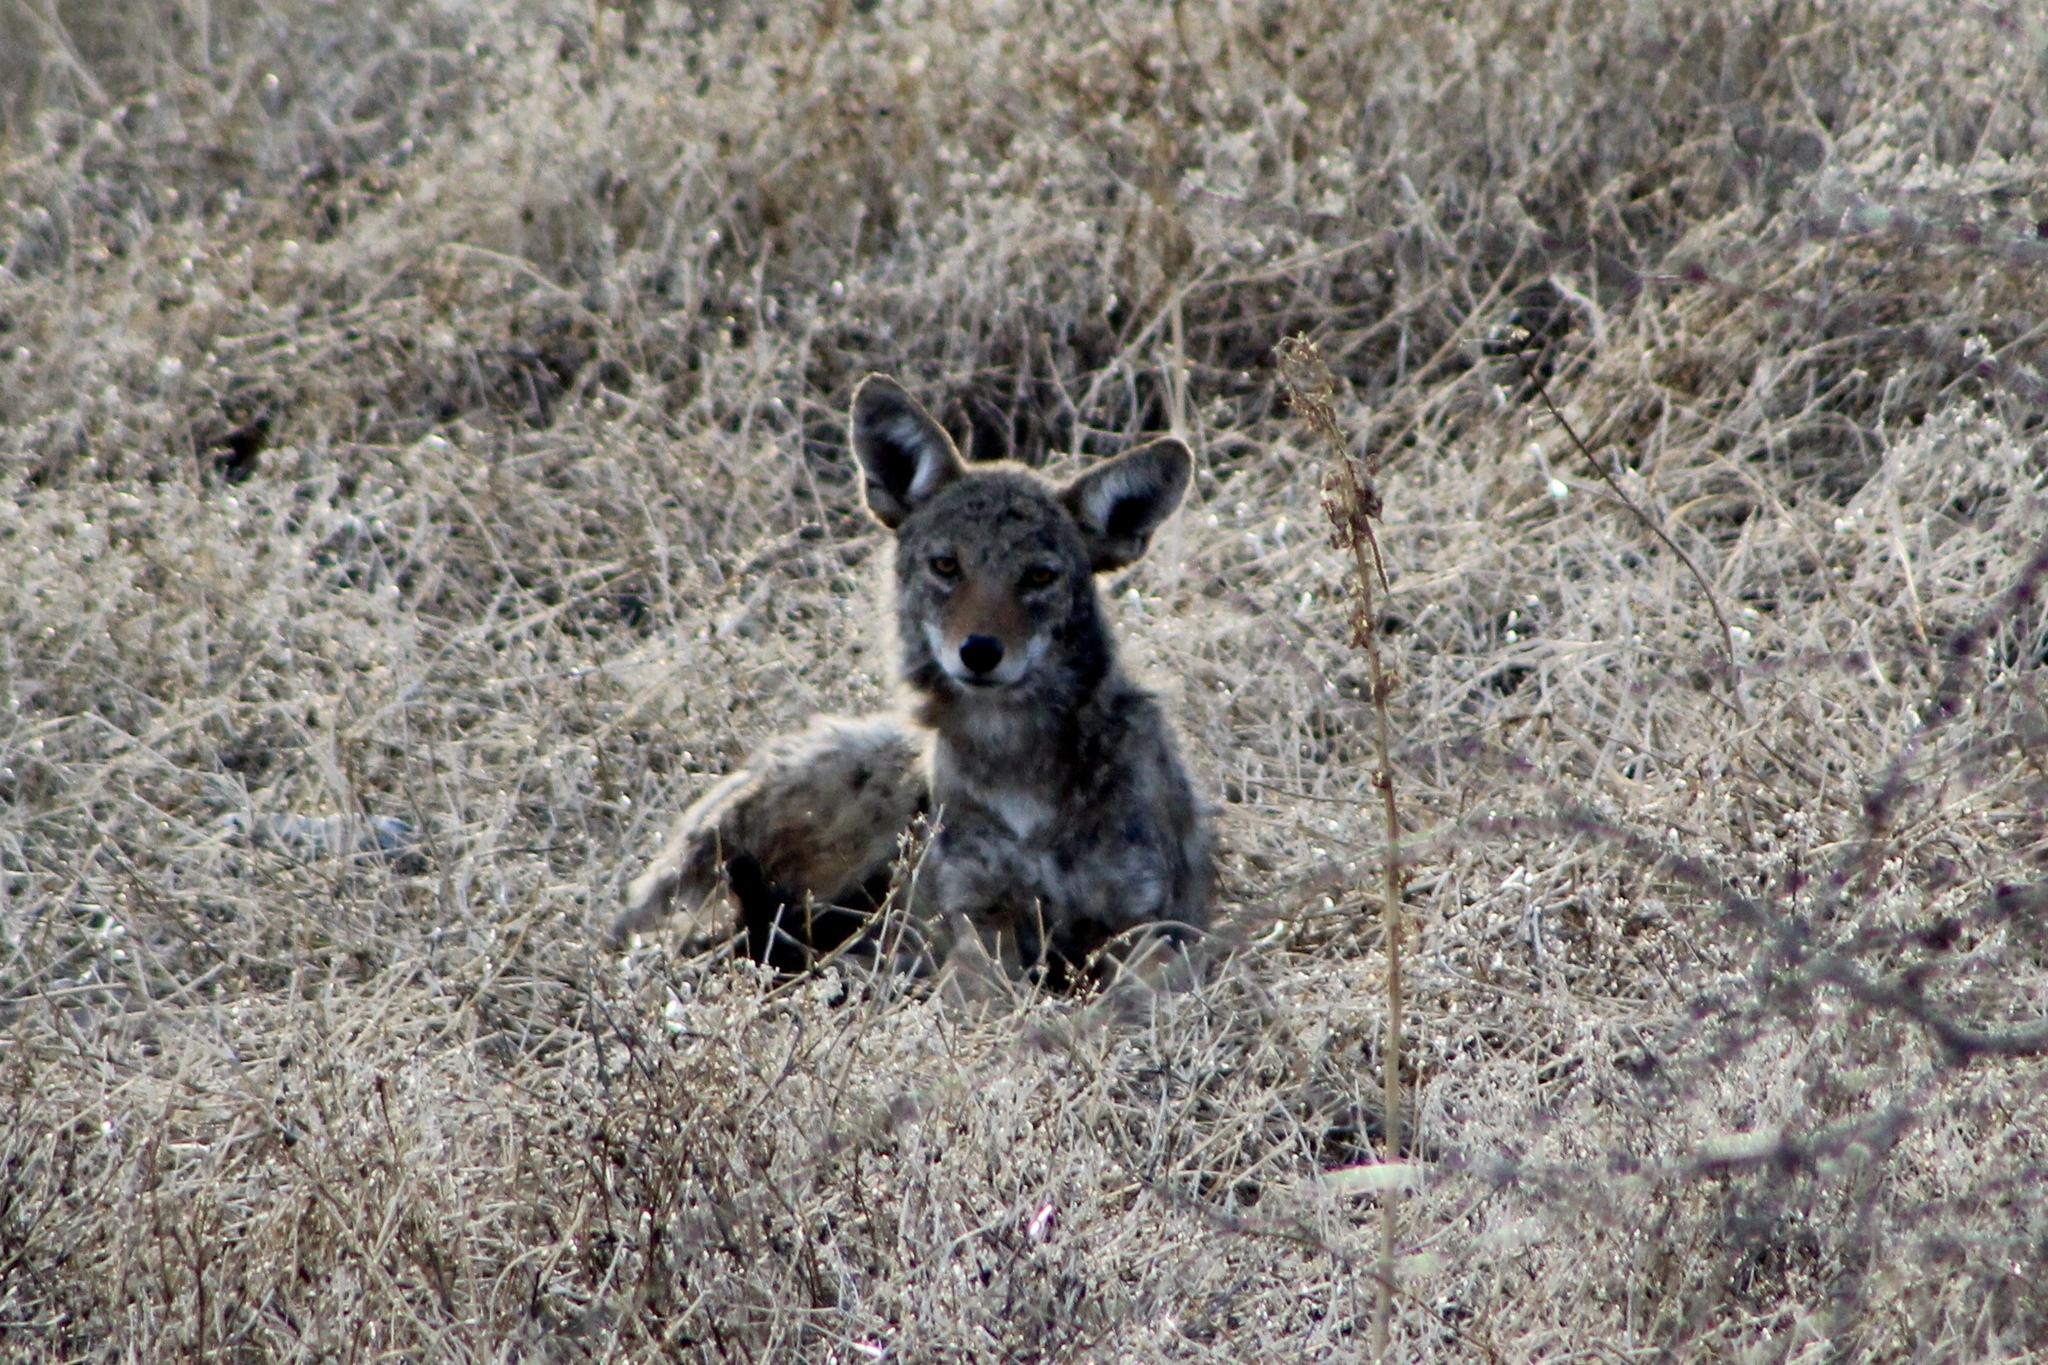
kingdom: Animalia
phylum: Chordata
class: Mammalia
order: Carnivora
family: Canidae
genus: Canis
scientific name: Canis latrans
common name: Coyote
